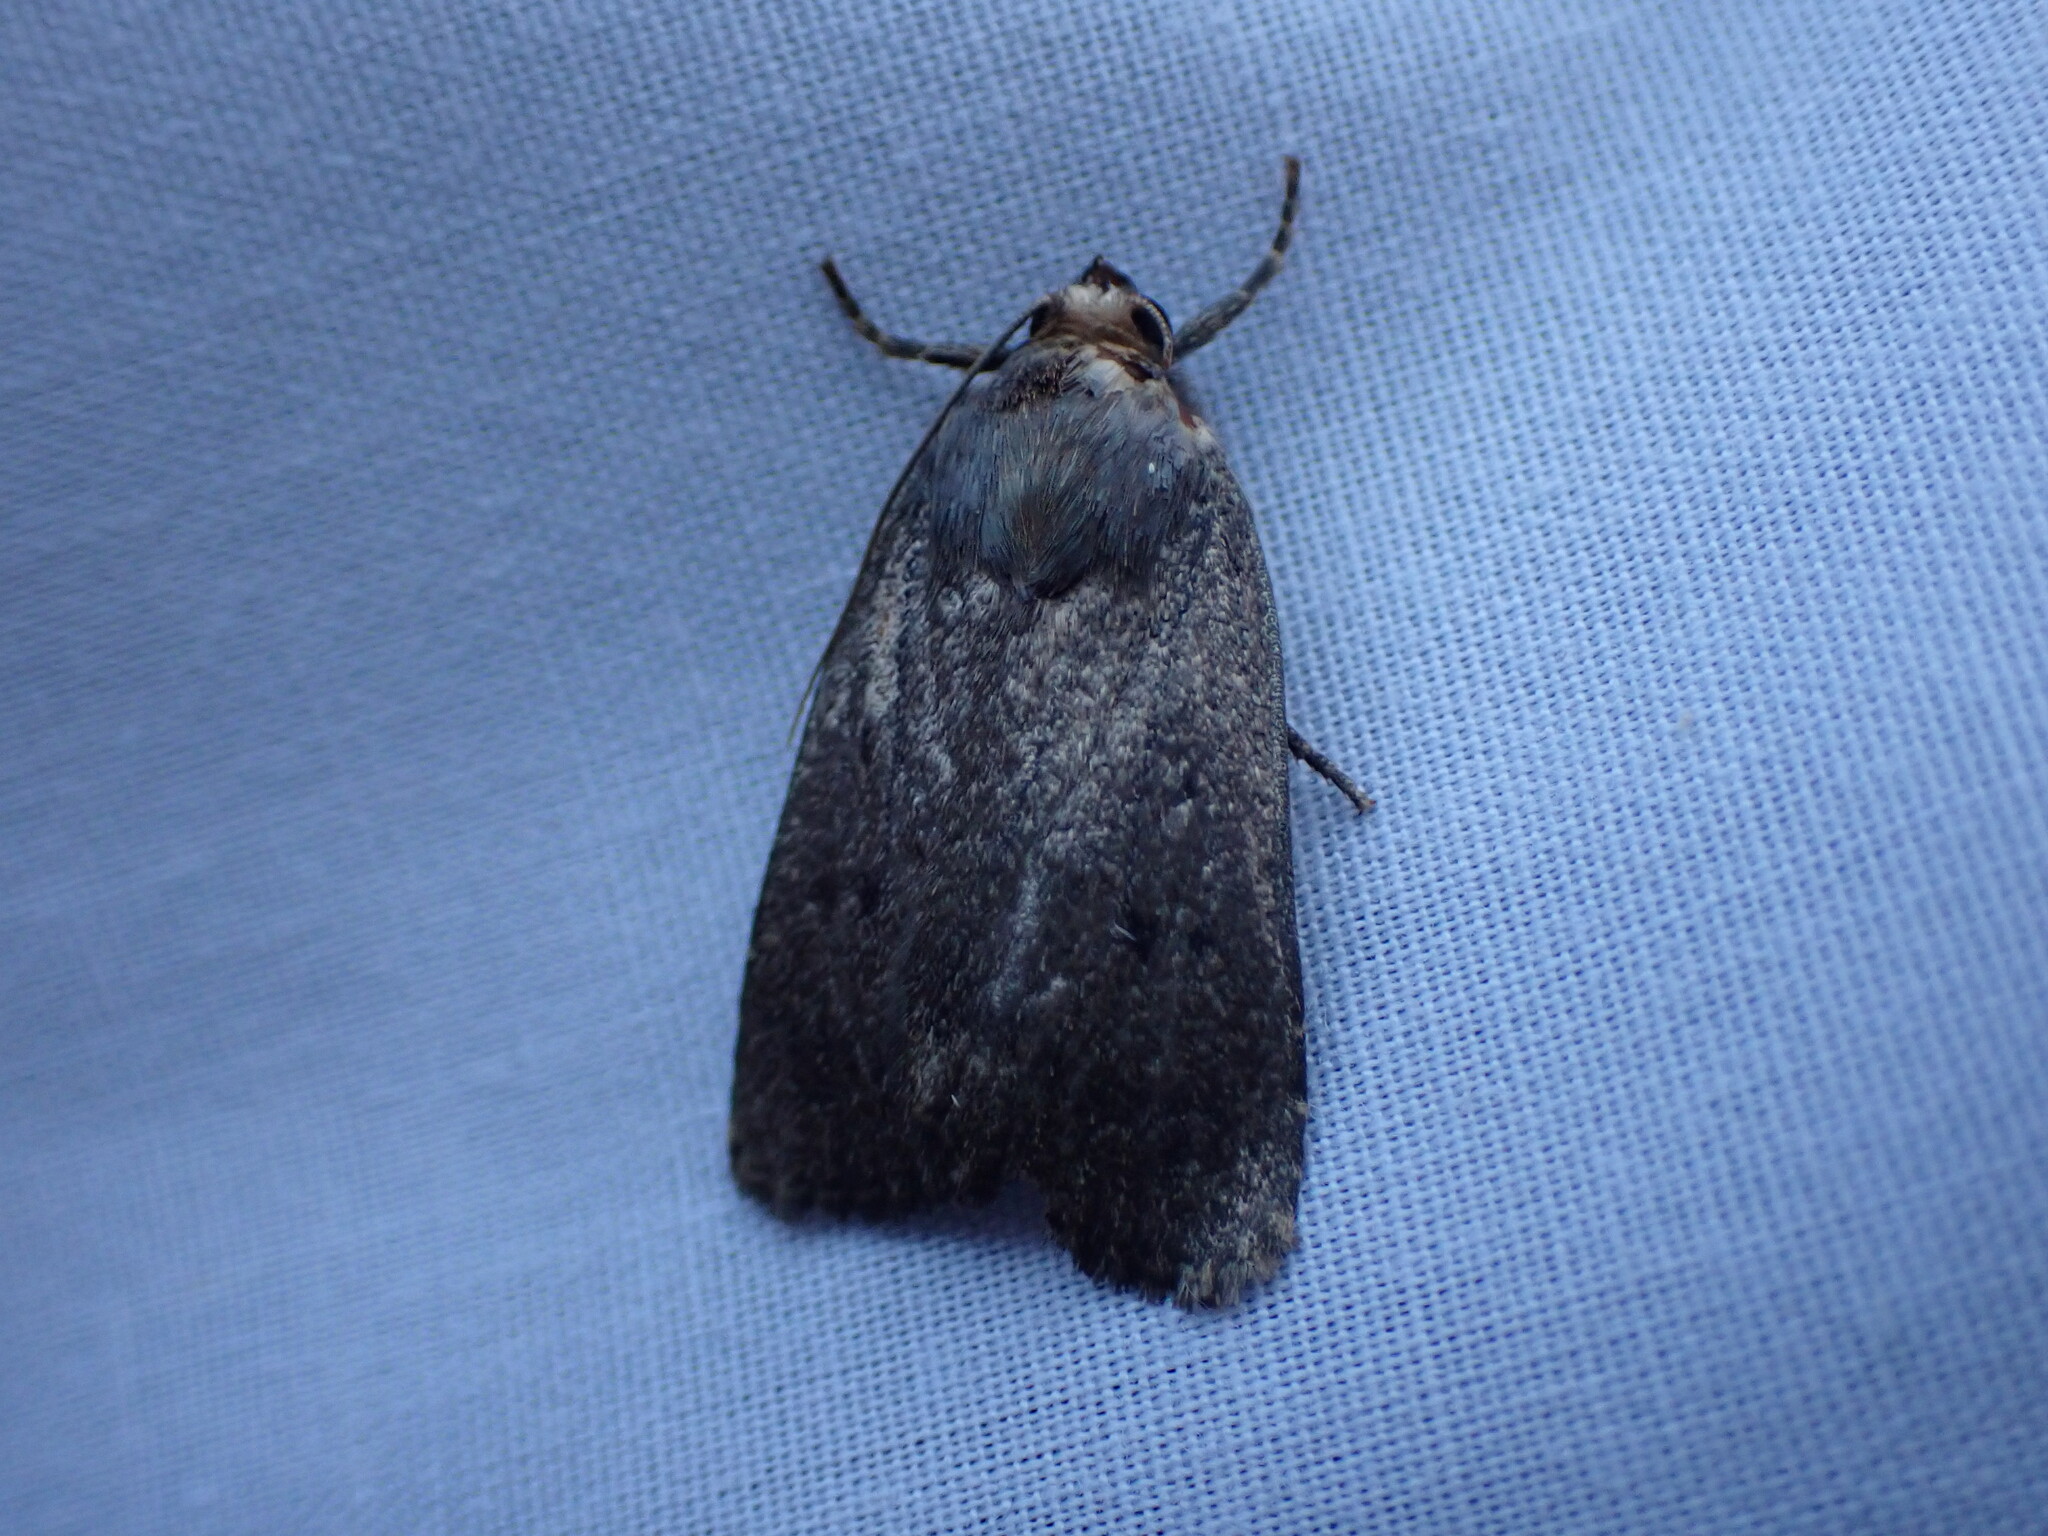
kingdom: Animalia
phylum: Arthropoda
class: Insecta
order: Lepidoptera
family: Noctuidae
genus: Amphipyra
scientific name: Amphipyra tragopoginis
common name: Mouse moth
